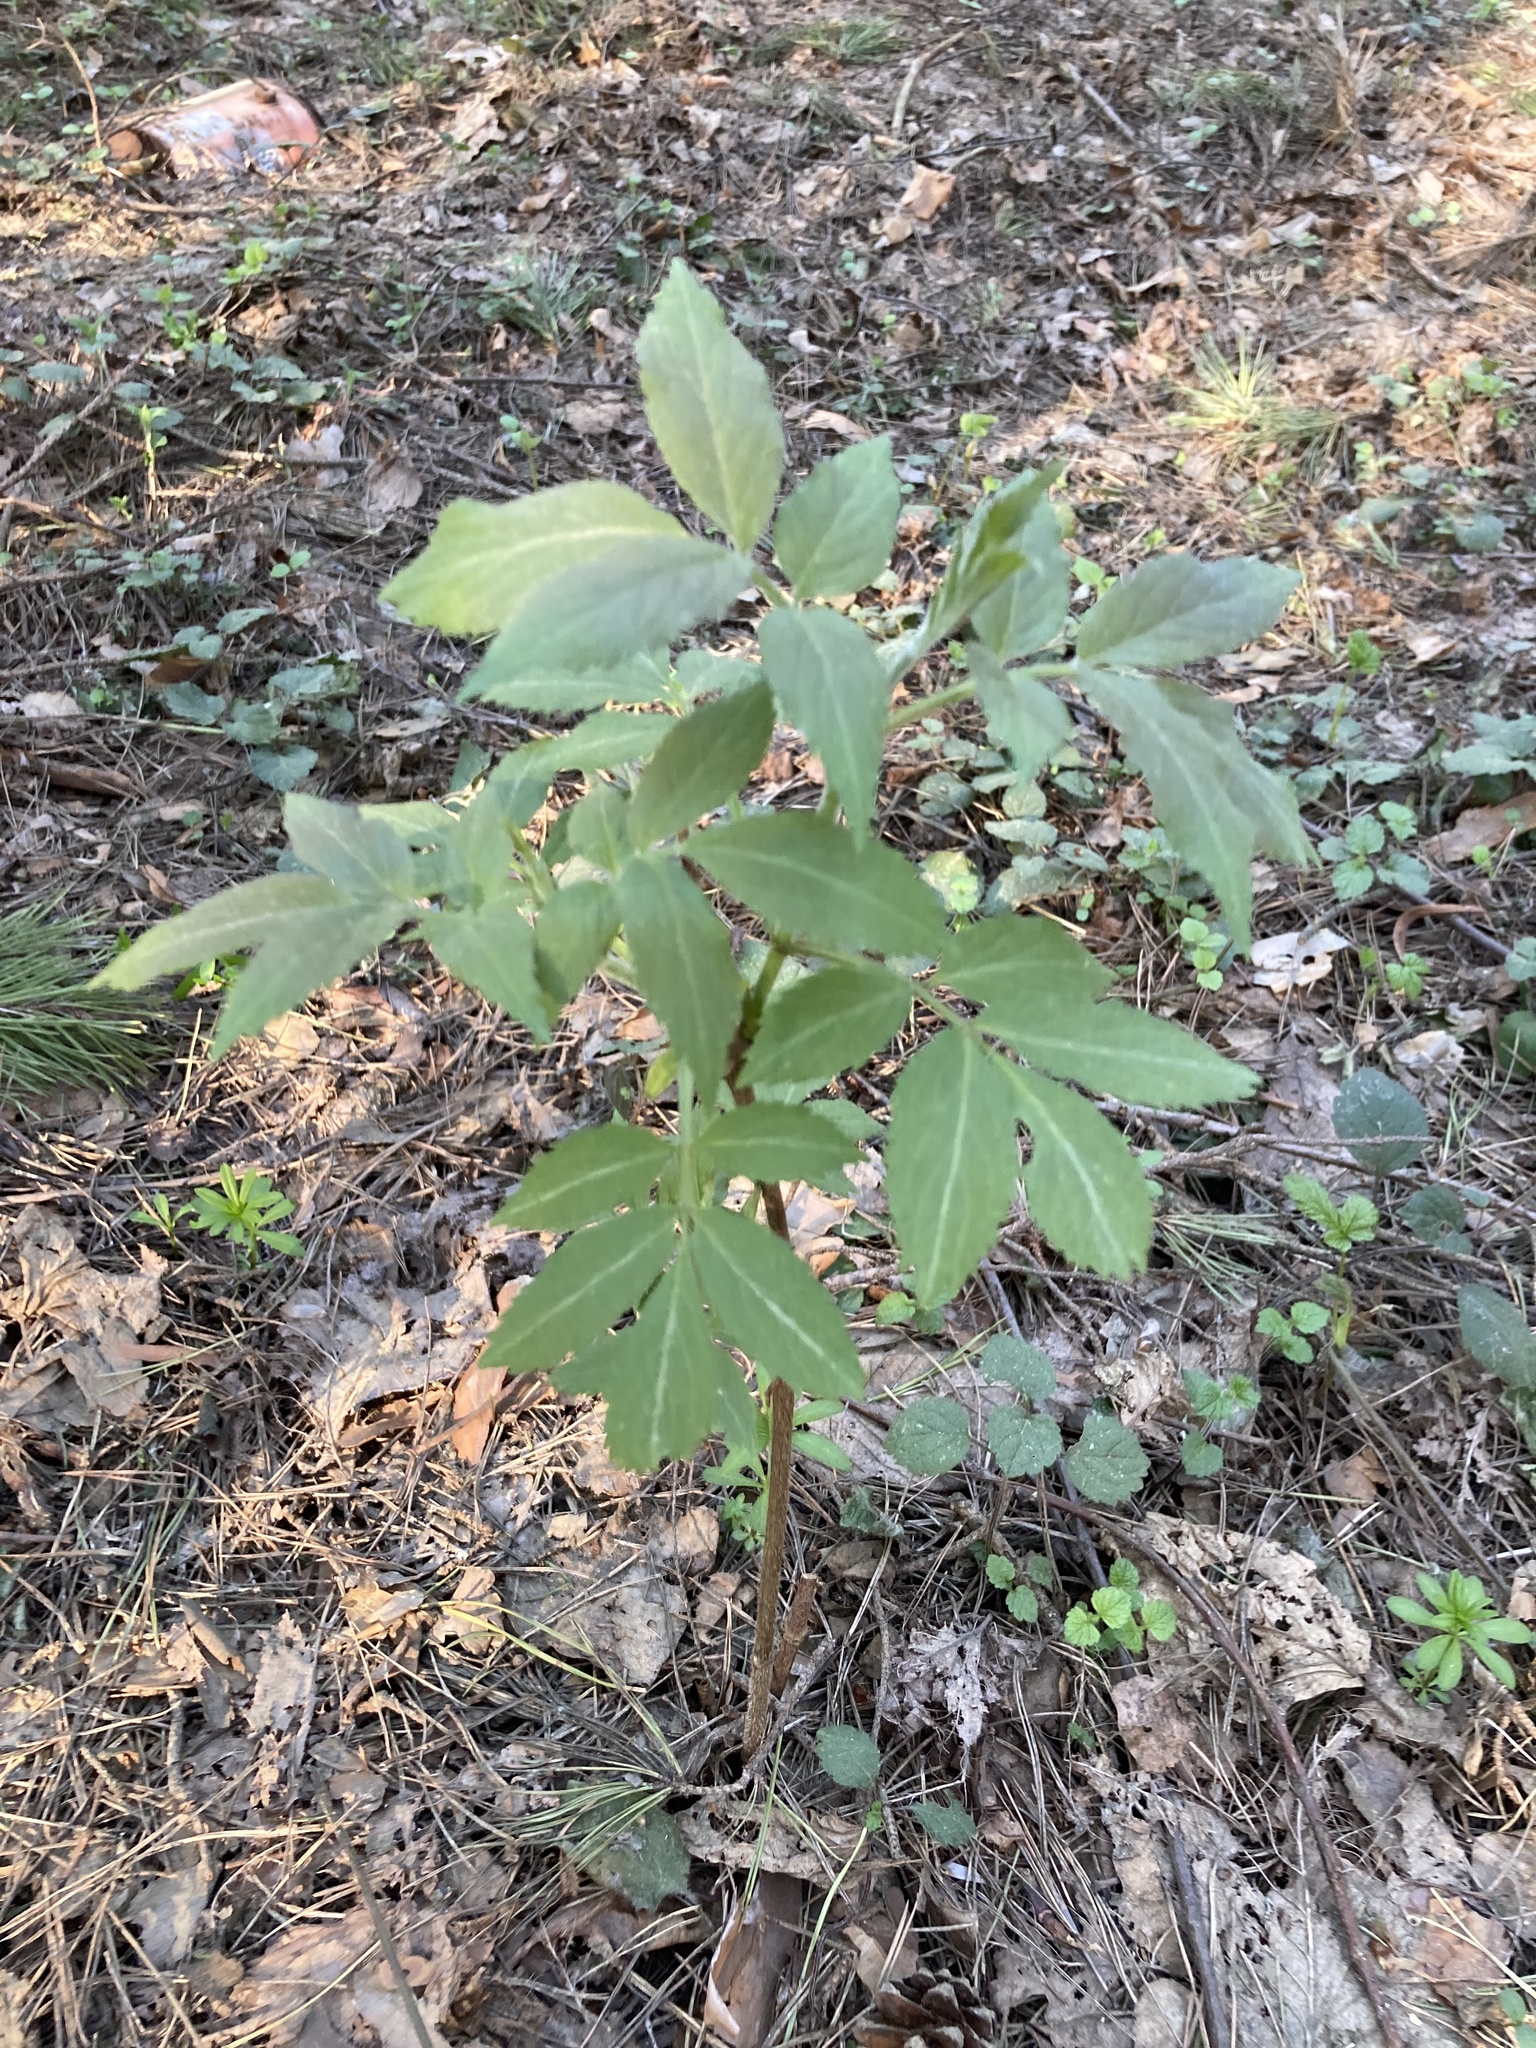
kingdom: Plantae
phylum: Tracheophyta
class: Magnoliopsida
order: Dipsacales
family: Viburnaceae
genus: Sambucus
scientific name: Sambucus racemosa
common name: Red-berried elder
